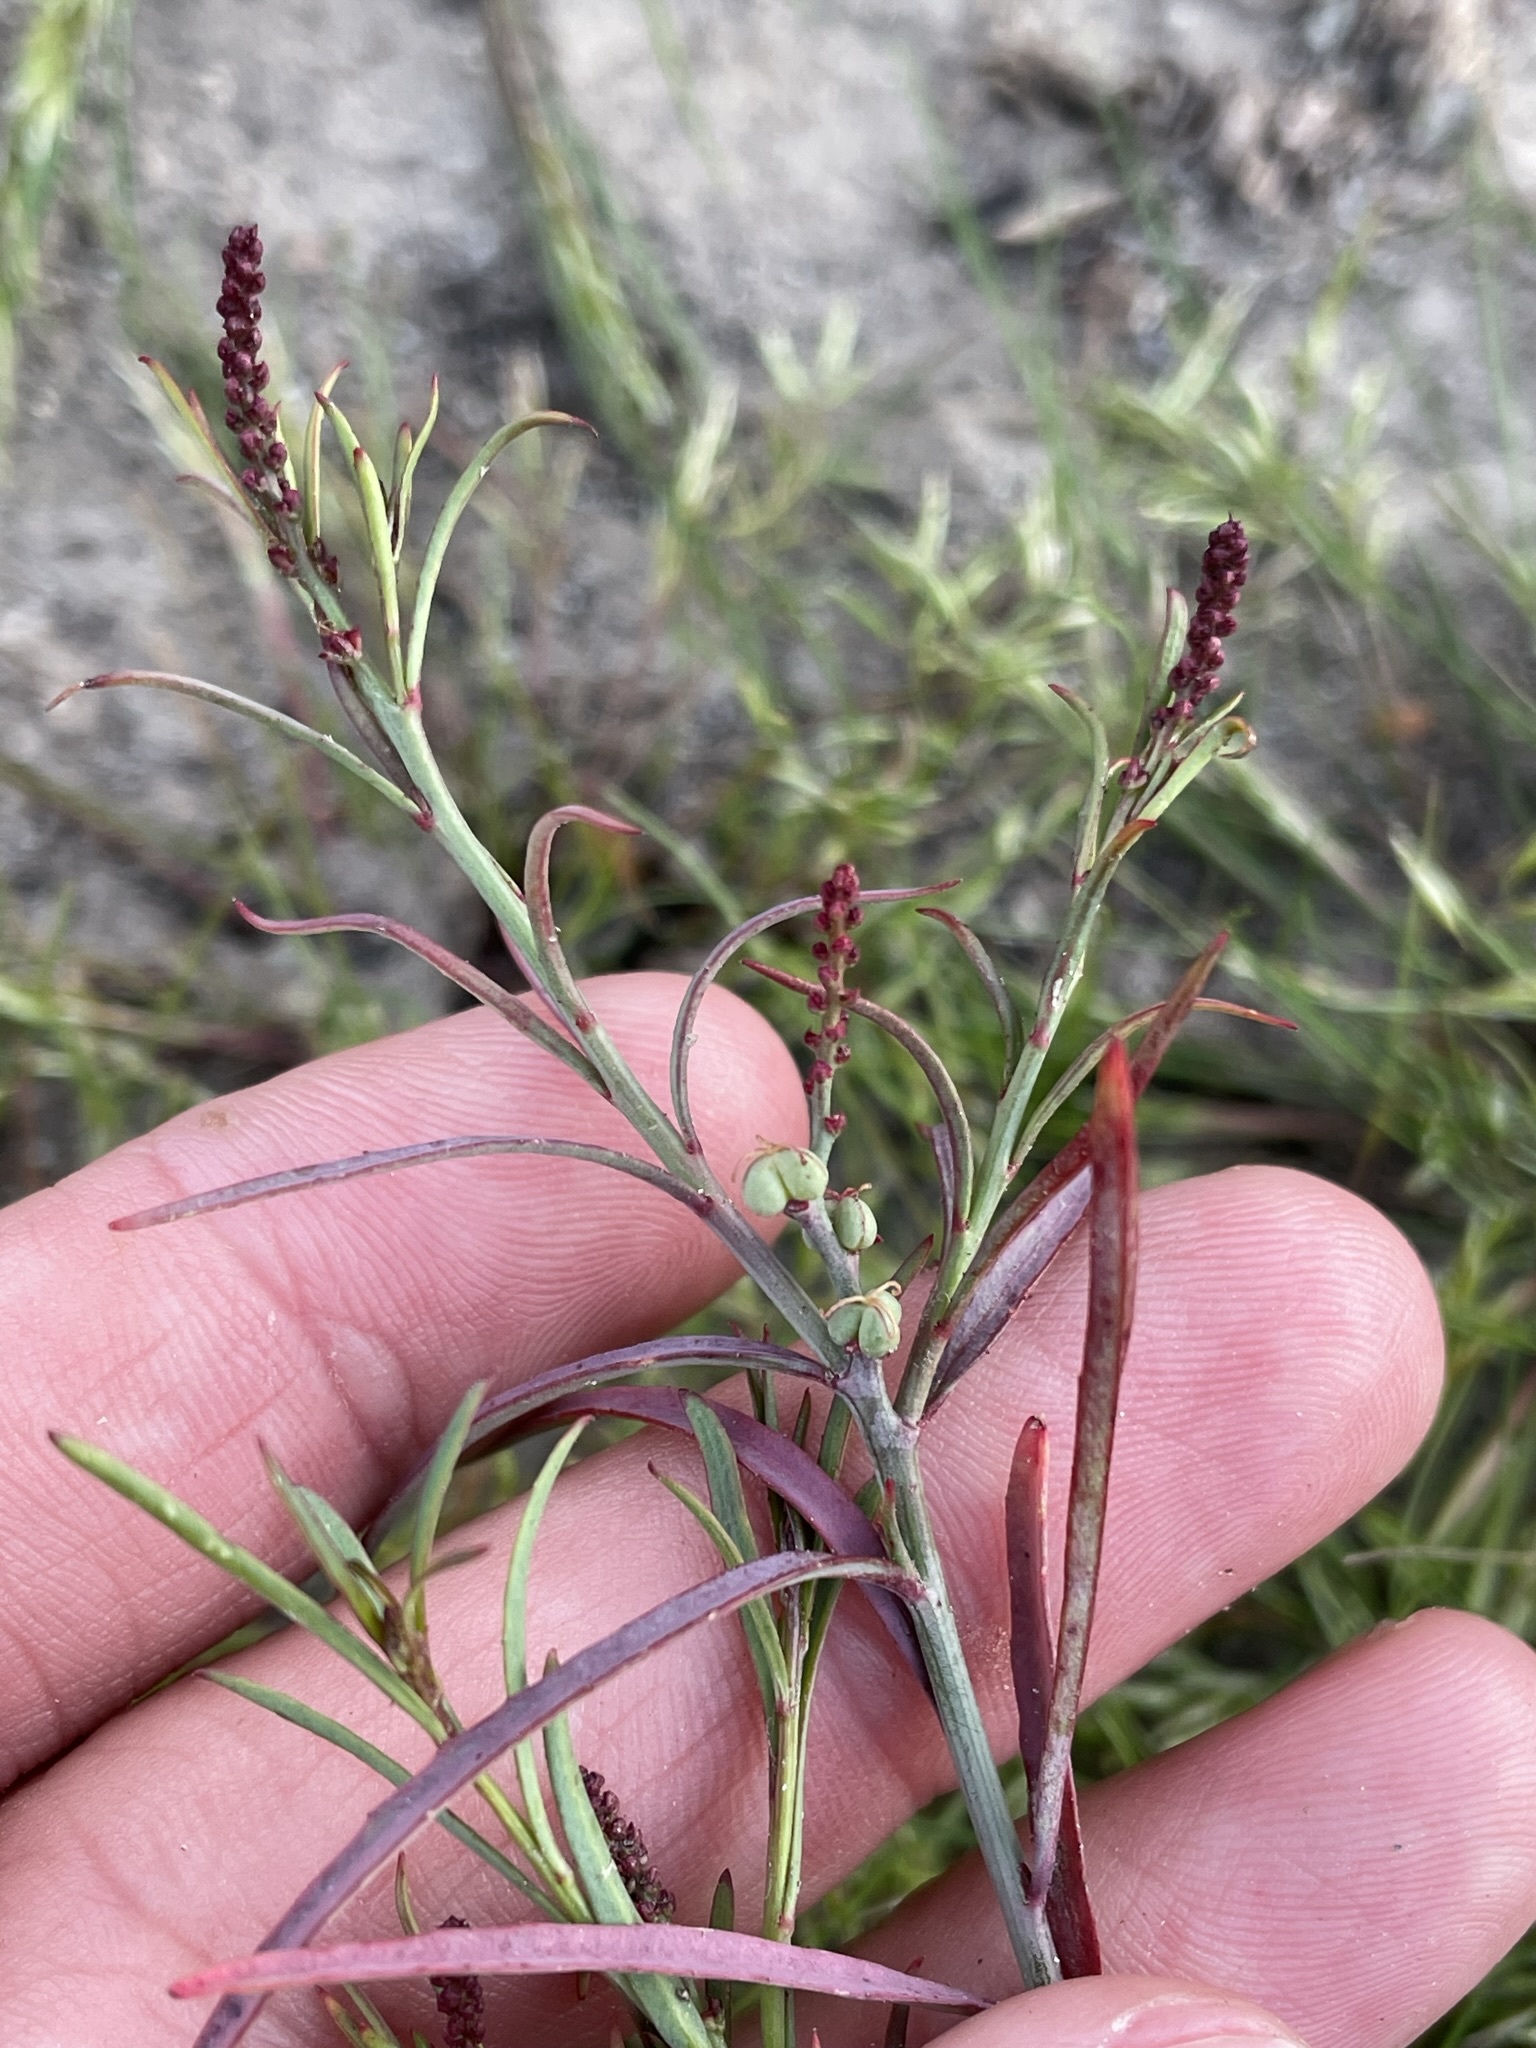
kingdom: Plantae
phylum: Tracheophyta
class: Magnoliopsida
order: Malpighiales
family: Euphorbiaceae
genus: Stillingia
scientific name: Stillingia linearifolia
